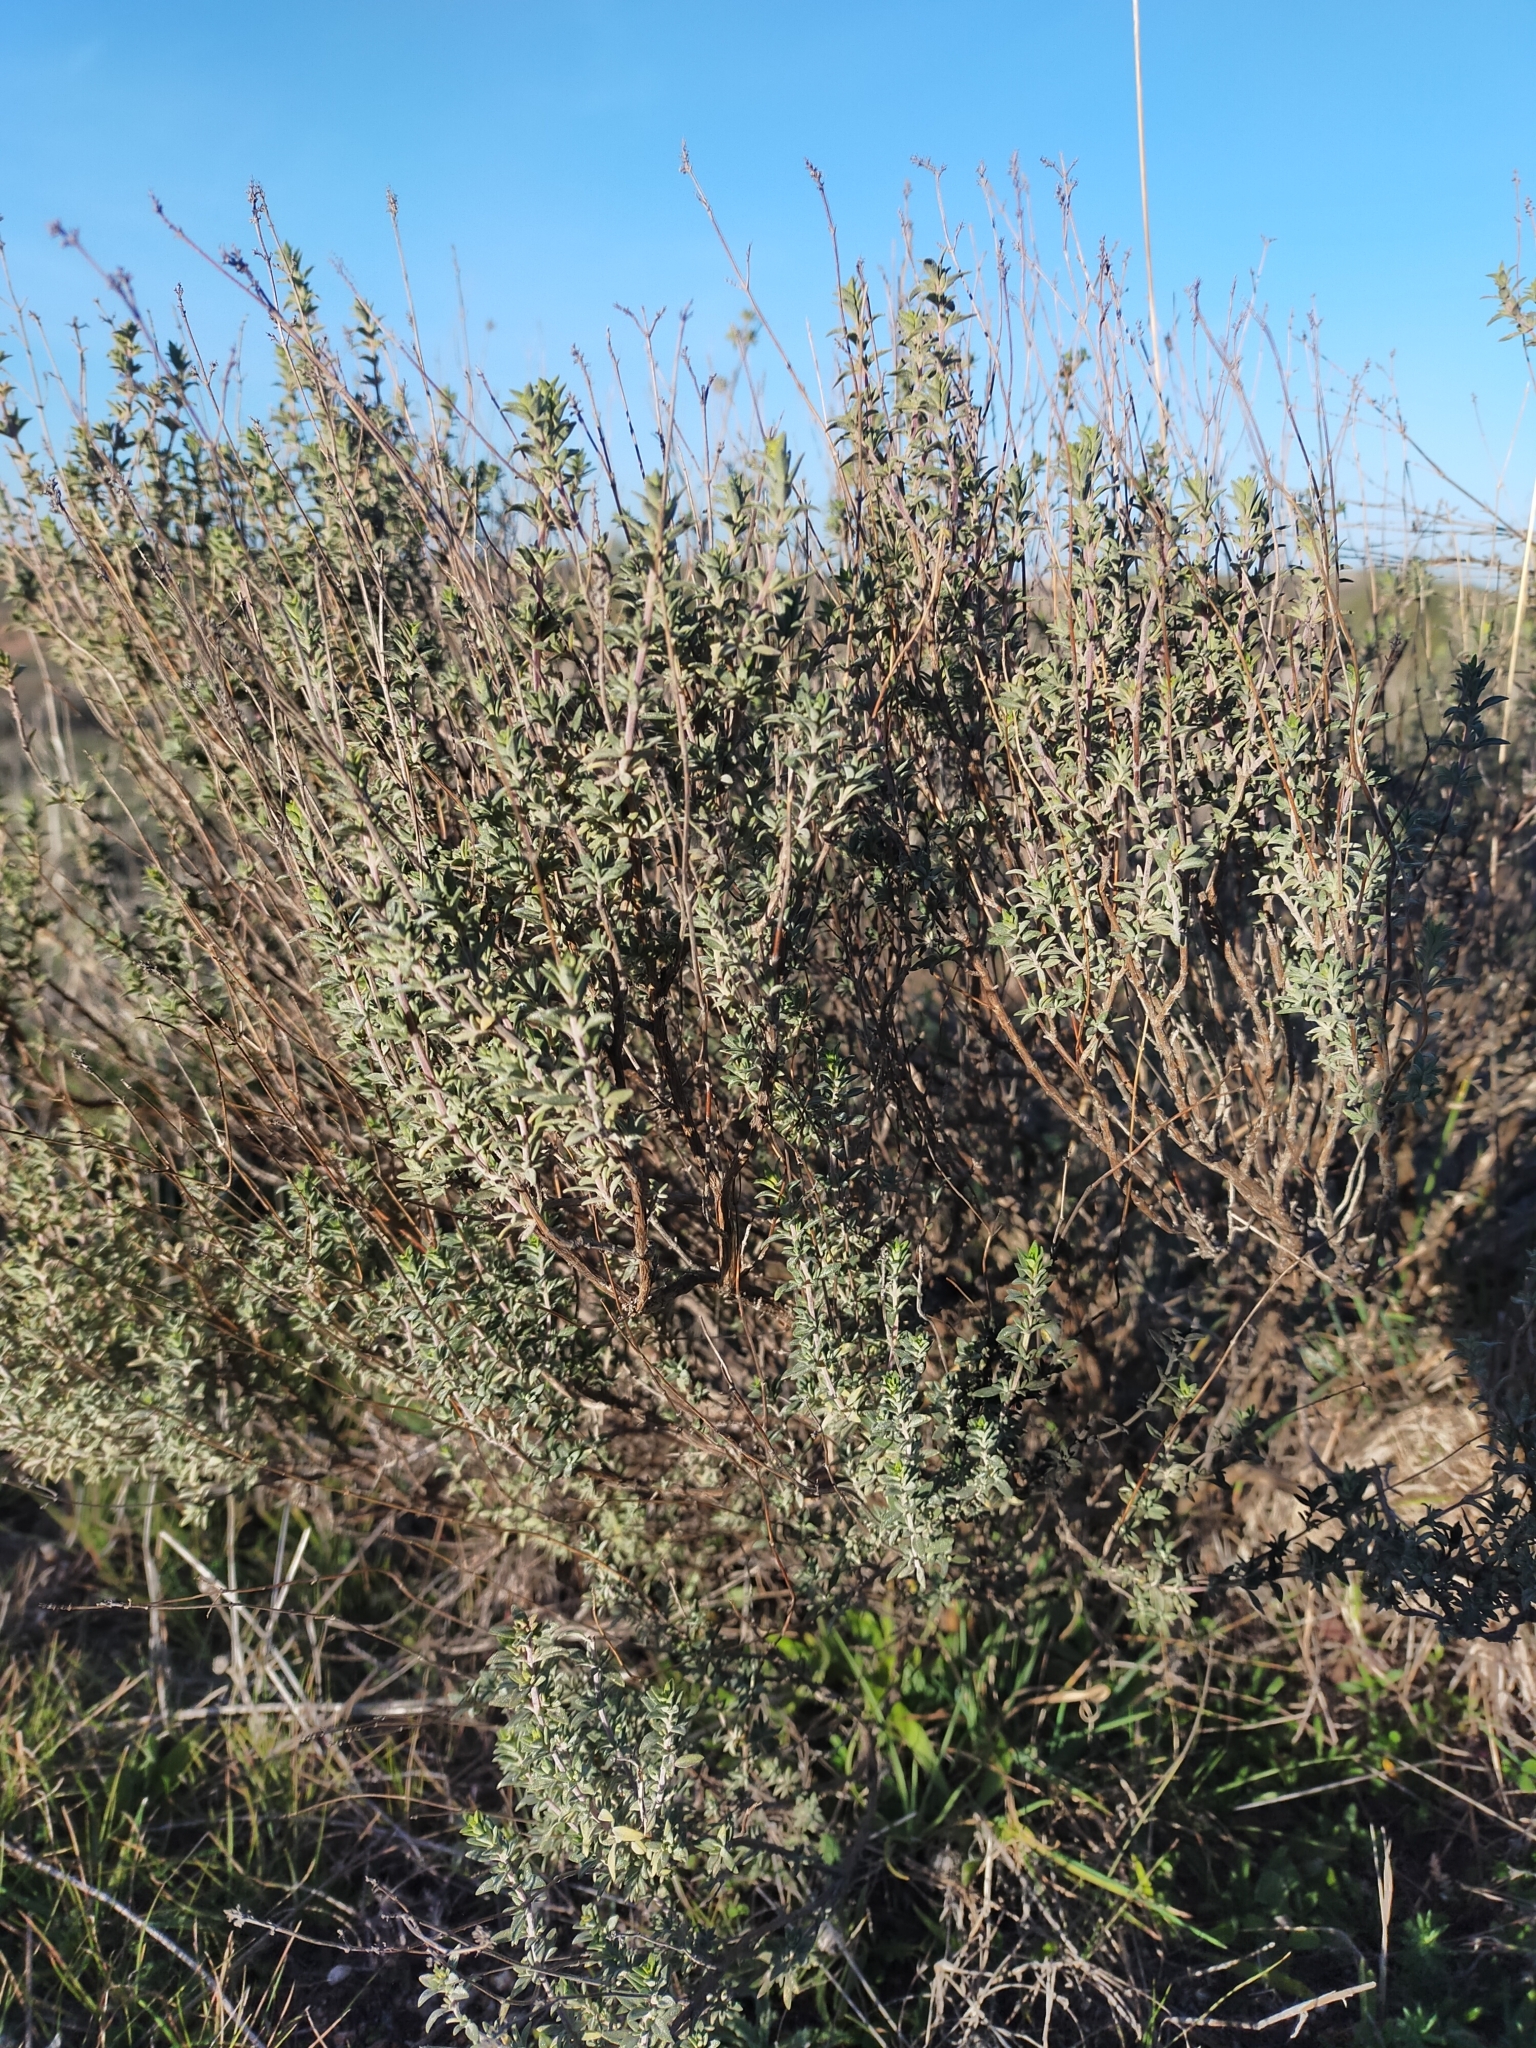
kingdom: Plantae
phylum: Tracheophyta
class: Magnoliopsida
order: Lamiales
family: Lamiaceae
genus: Thymus
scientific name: Thymus mastichina
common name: Mastic thyme
